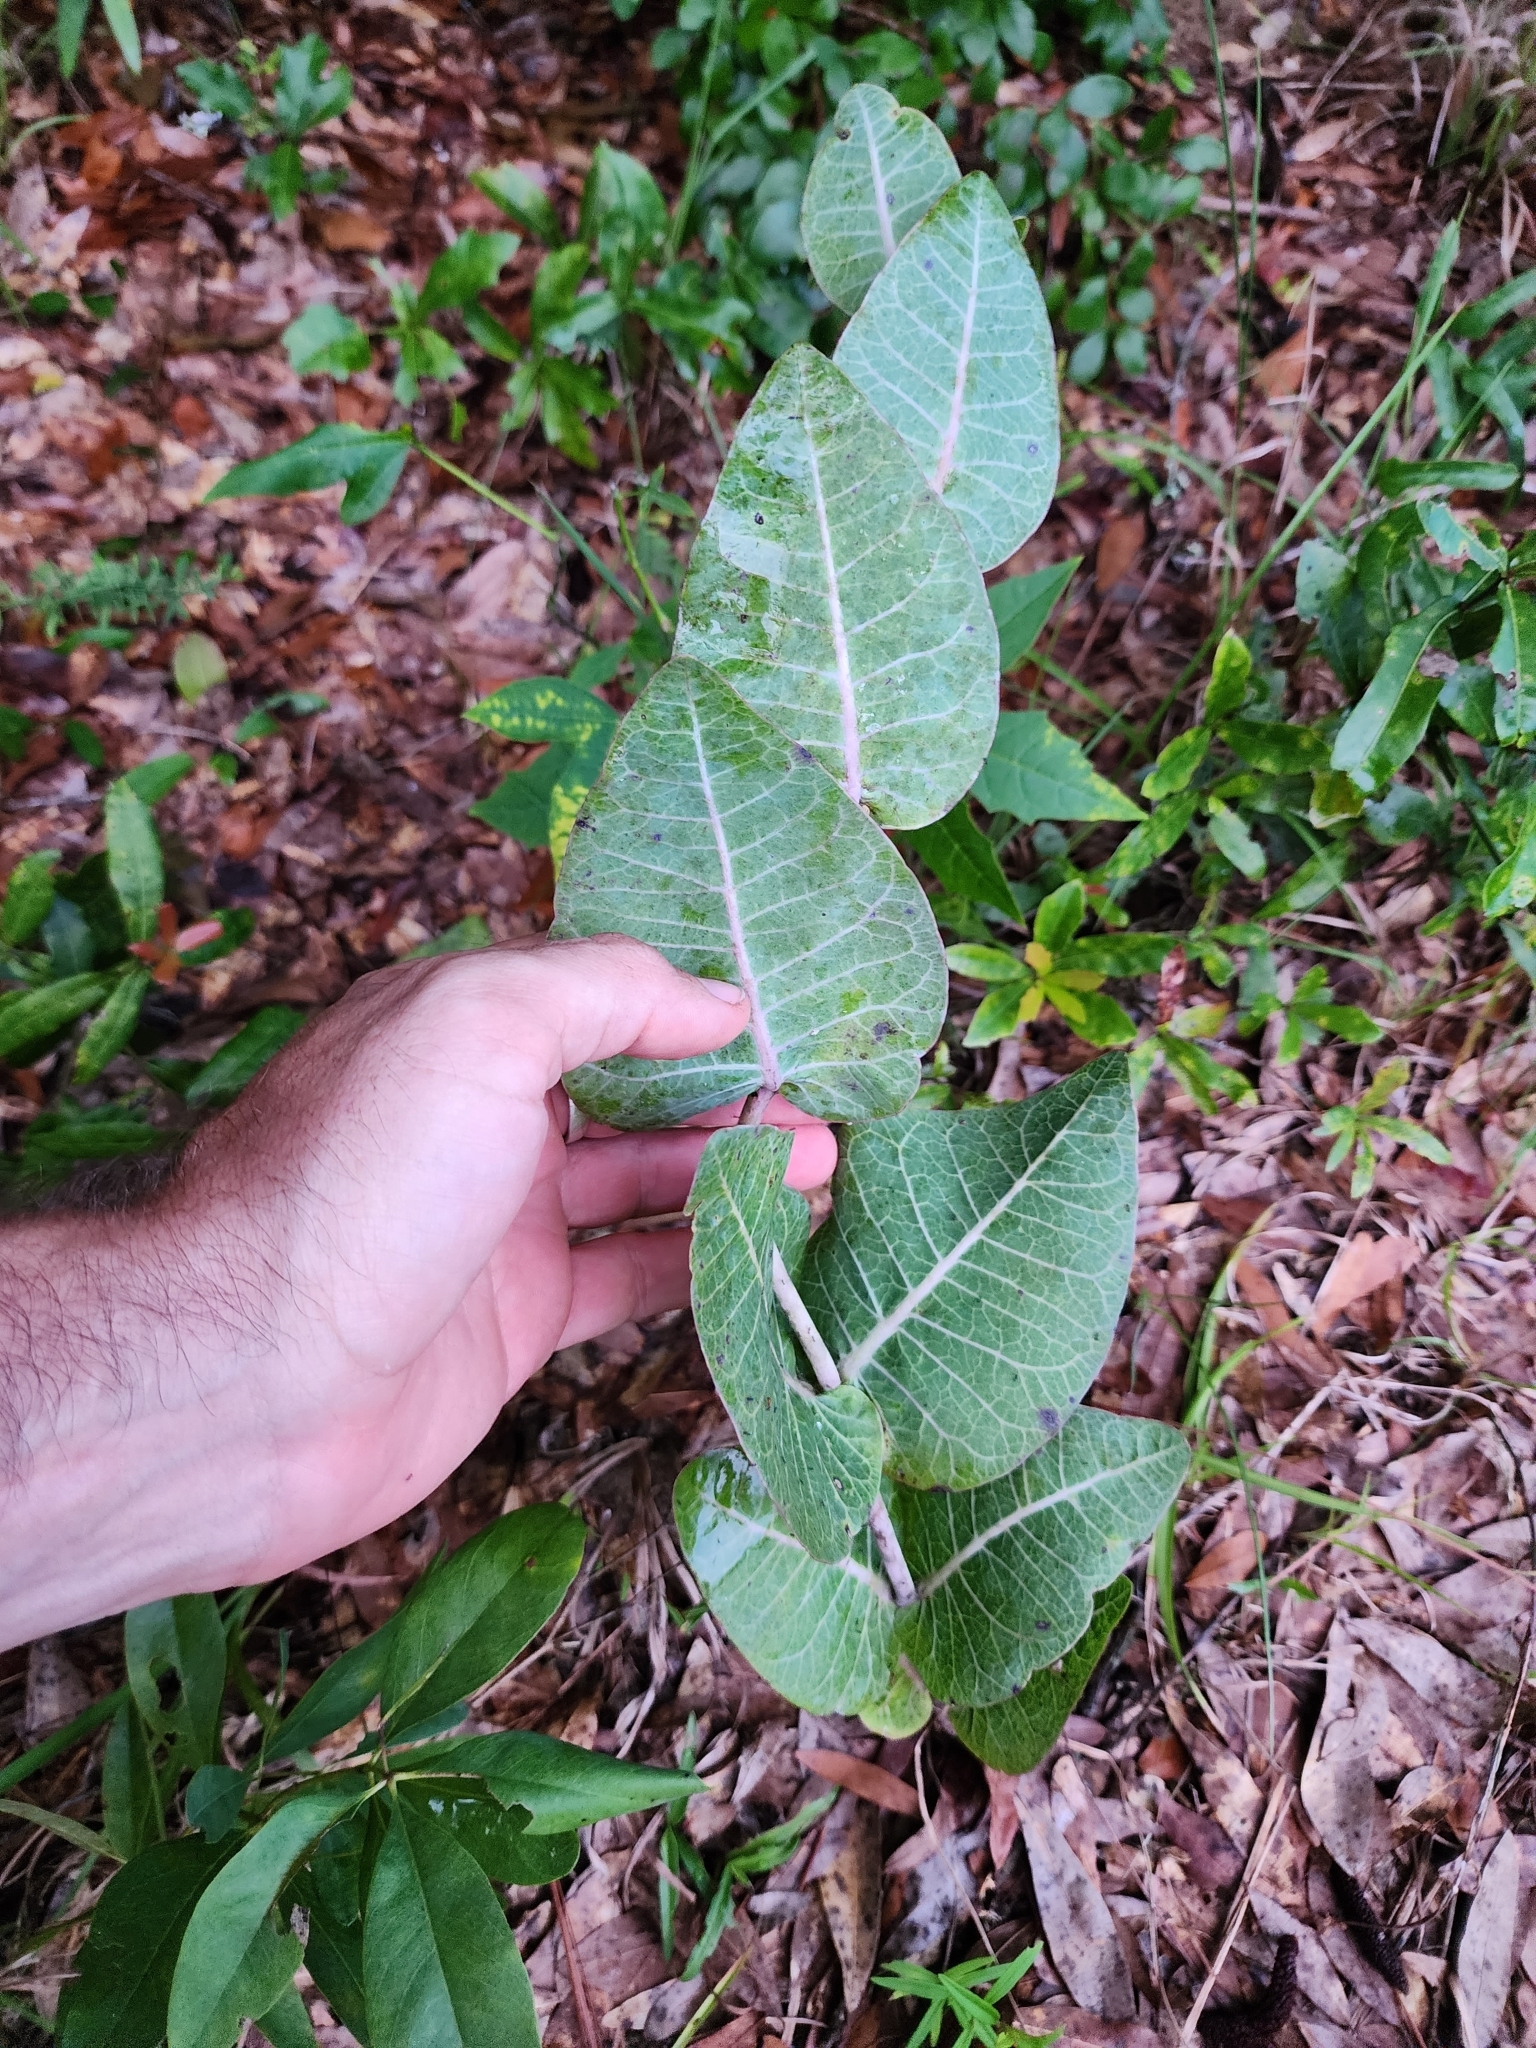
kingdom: Plantae
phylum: Tracheophyta
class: Magnoliopsida
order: Gentianales
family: Apocynaceae
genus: Asclepias
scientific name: Asclepias humistrata
